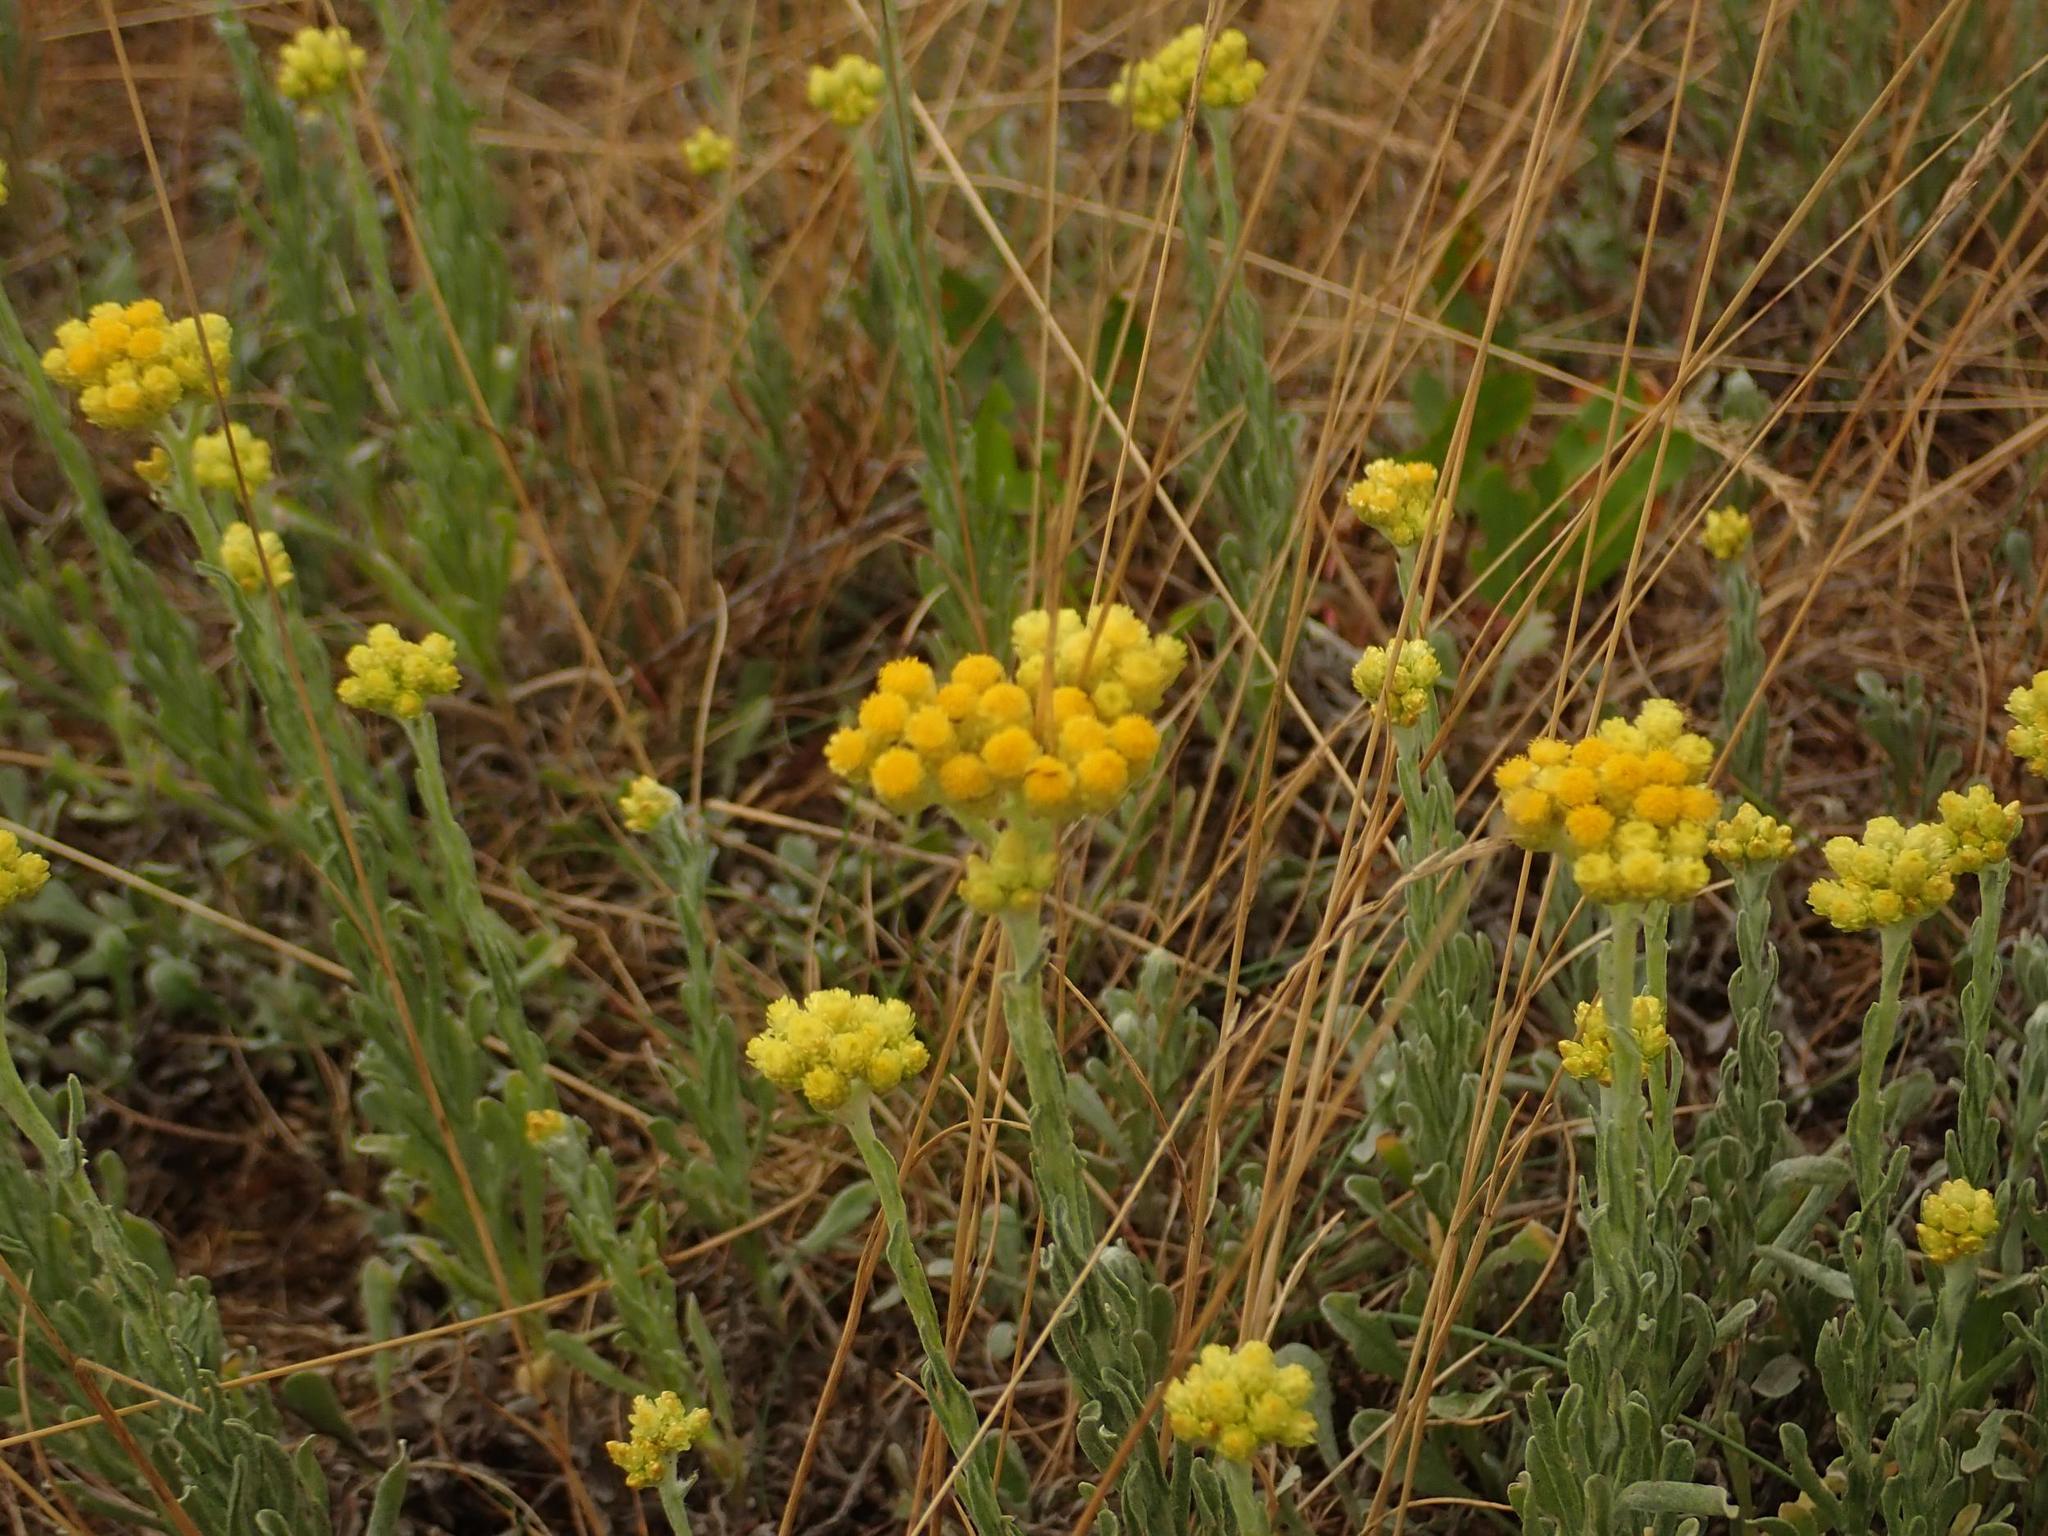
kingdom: Plantae
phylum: Tracheophyta
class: Magnoliopsida
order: Asterales
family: Asteraceae
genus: Helichrysum
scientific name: Helichrysum arenarium
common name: Strawflower
